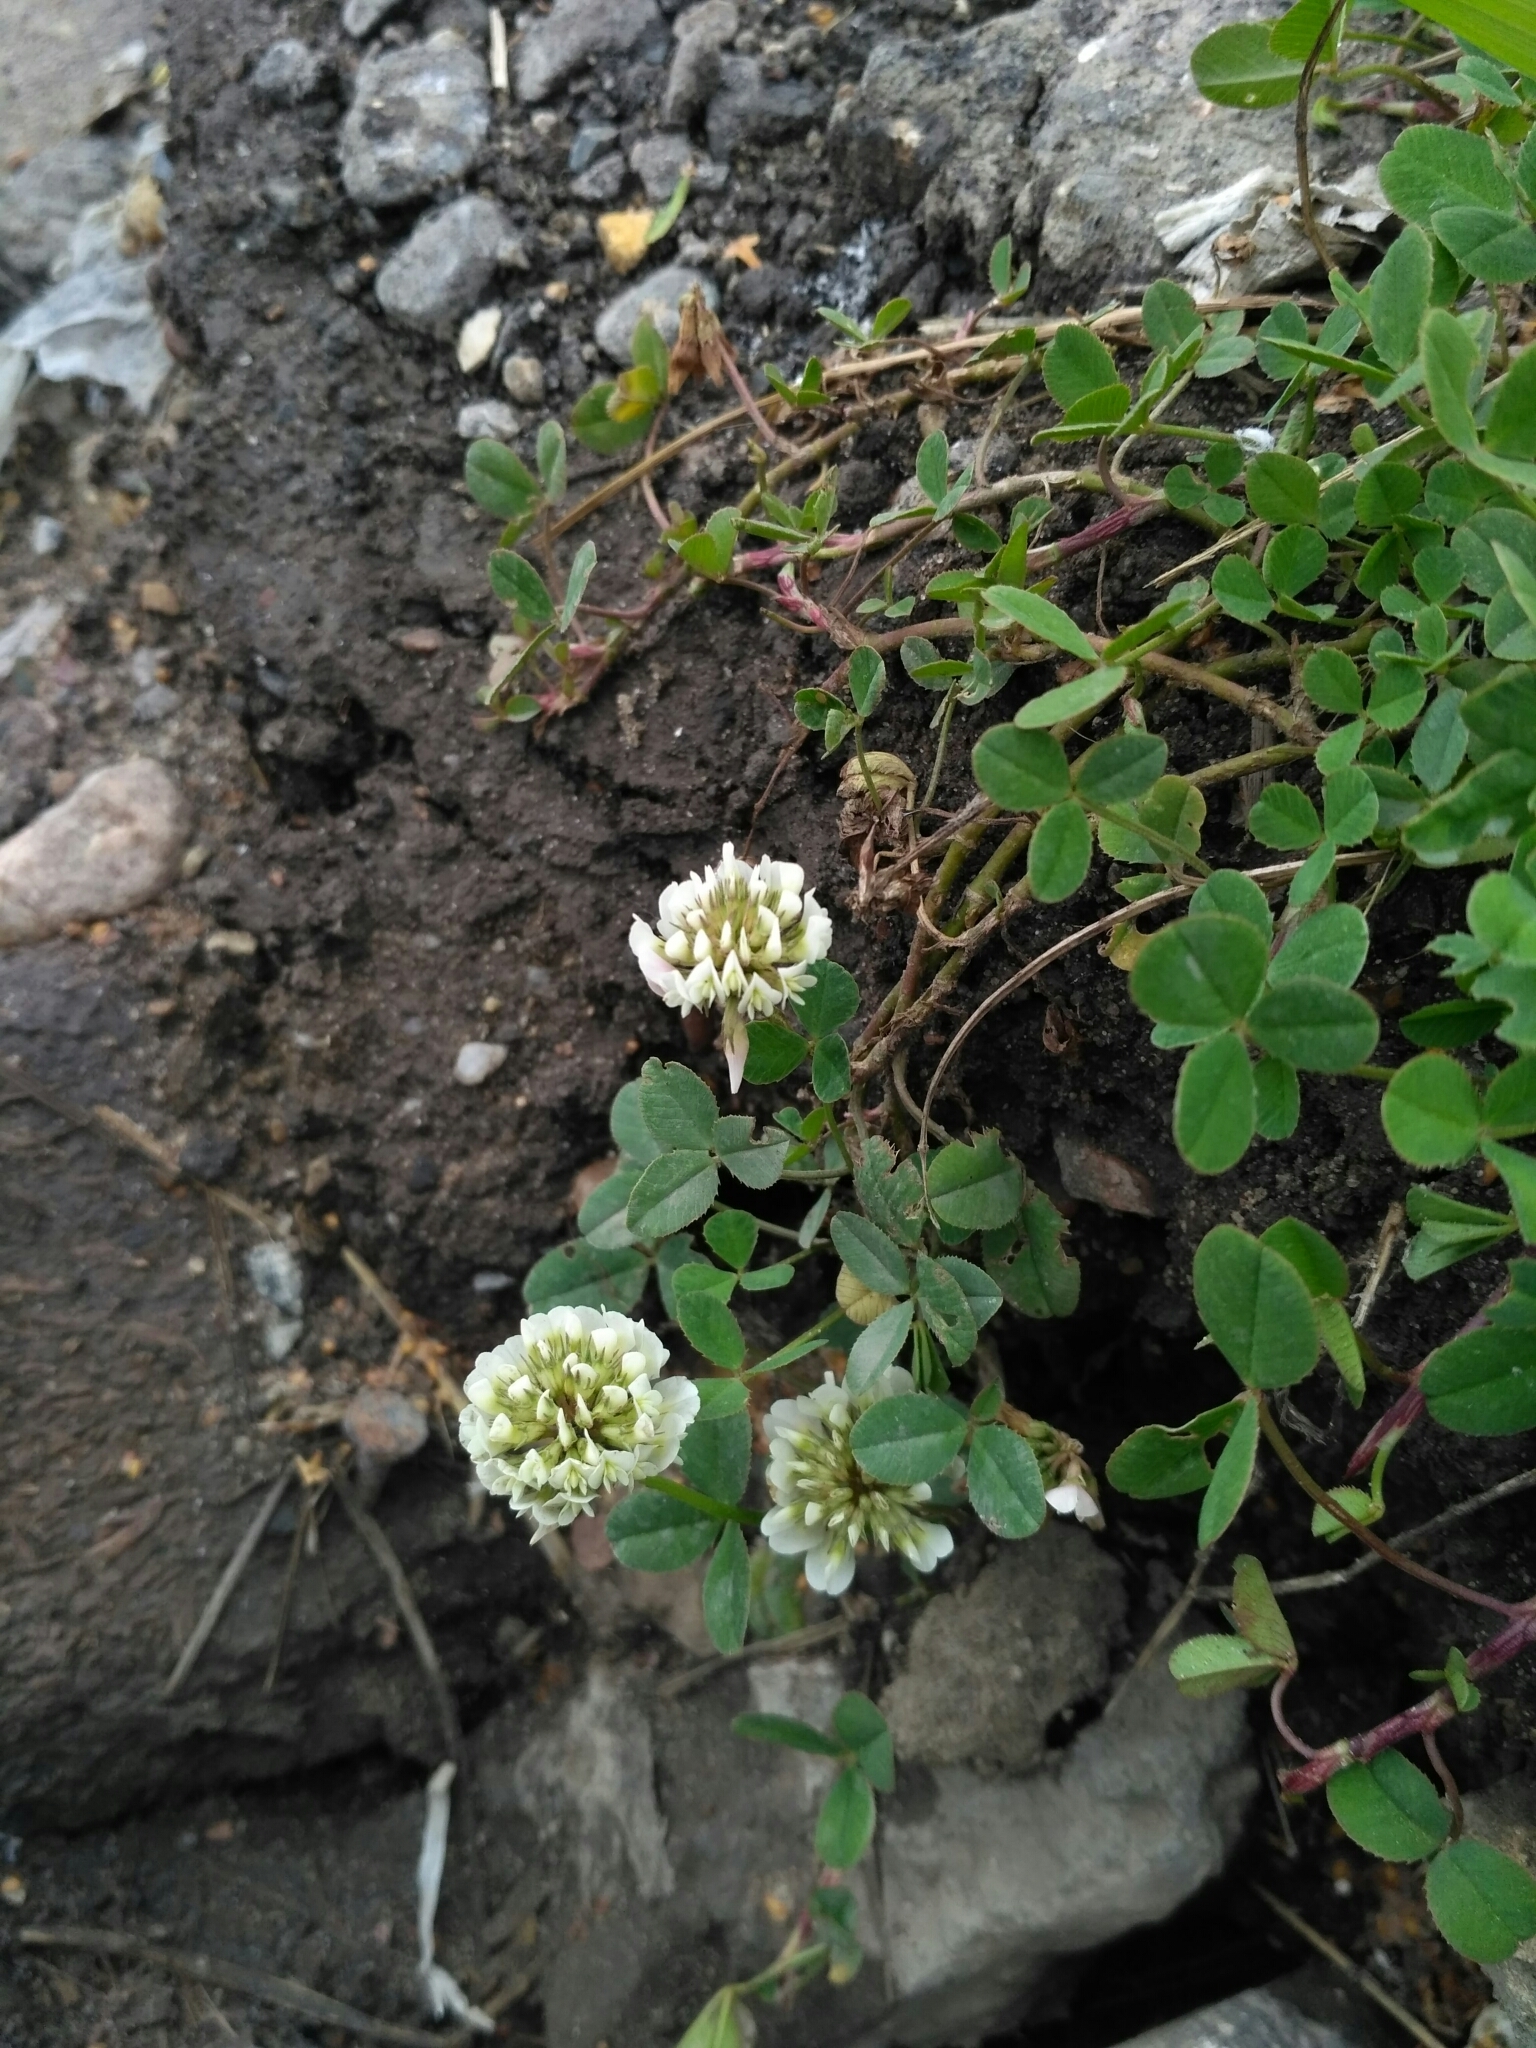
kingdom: Plantae
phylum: Tracheophyta
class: Magnoliopsida
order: Fabales
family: Fabaceae
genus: Trifolium
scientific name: Trifolium repens
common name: White clover
